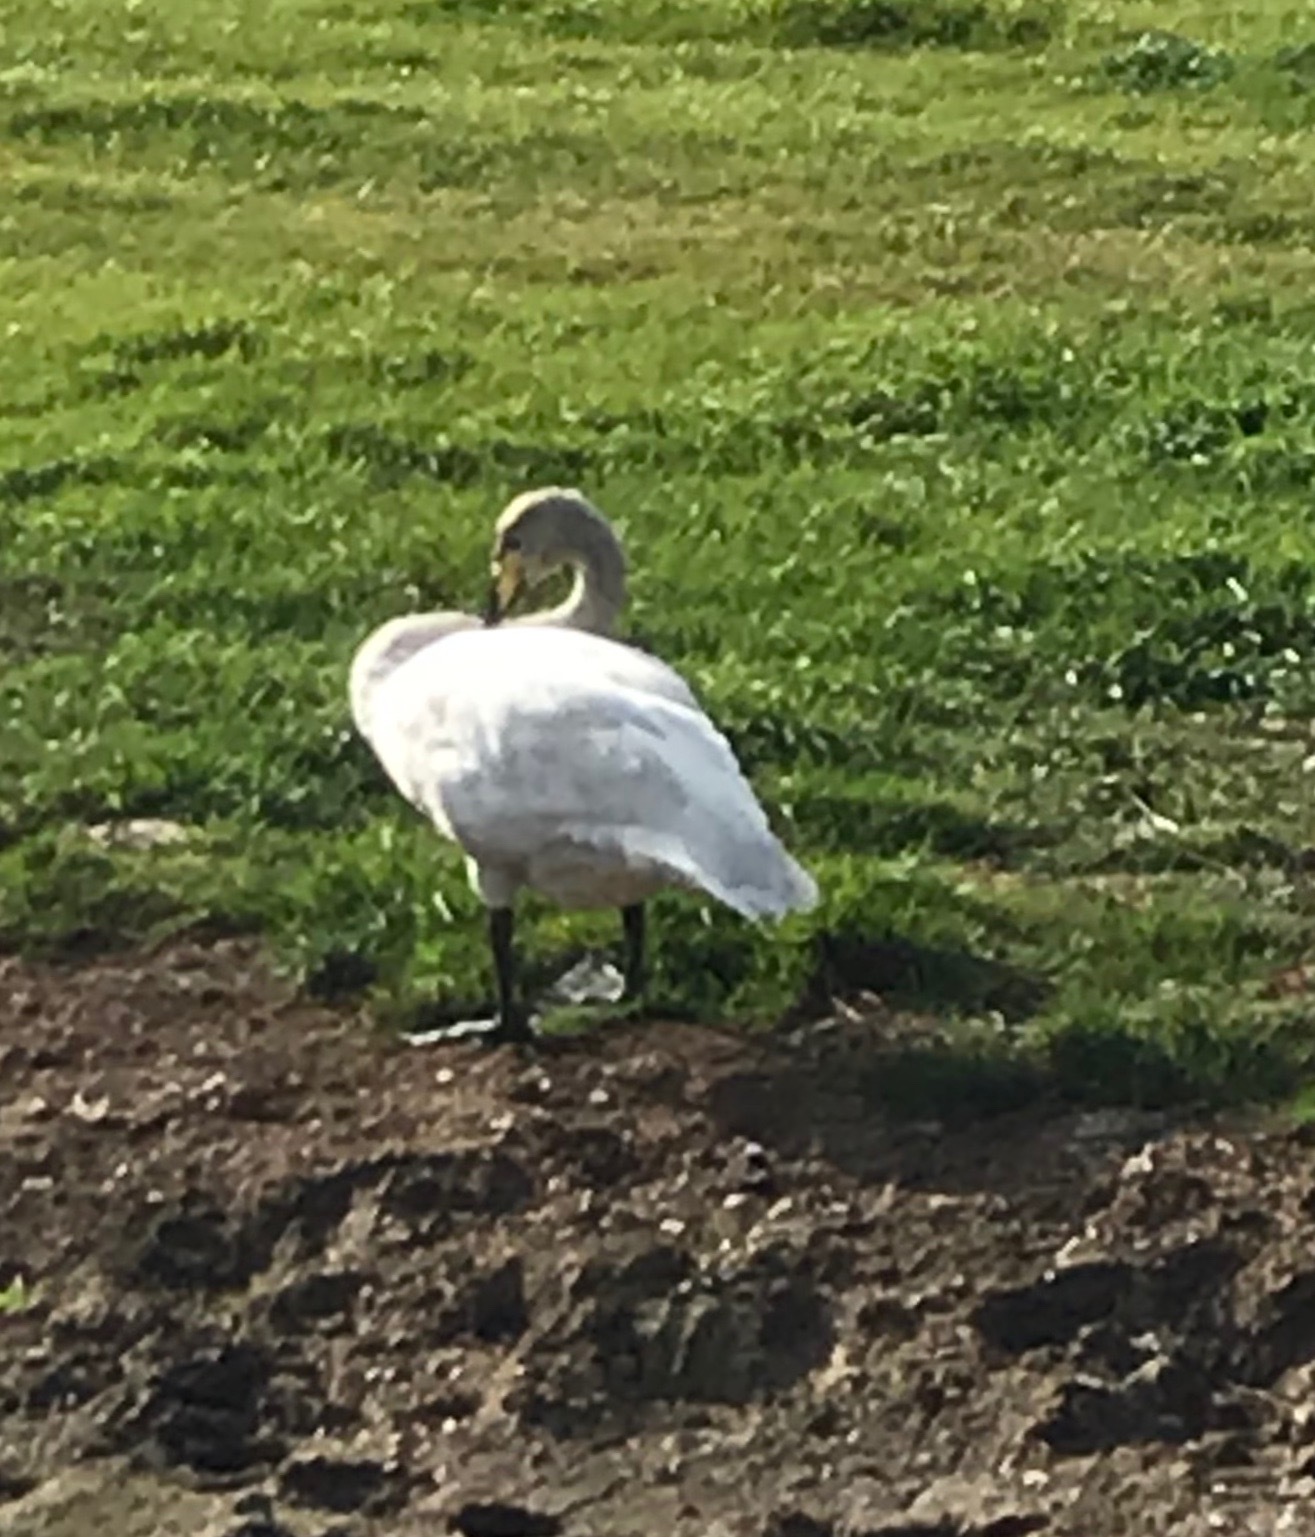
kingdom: Animalia
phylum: Chordata
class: Aves
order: Anseriformes
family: Anatidae
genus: Cygnus
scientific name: Cygnus cygnus
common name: Whooper swan
